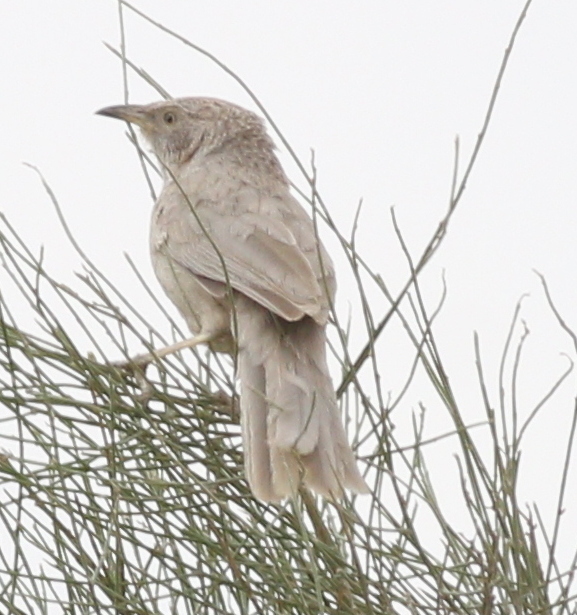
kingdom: Animalia
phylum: Chordata
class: Aves
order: Passeriformes
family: Leiothrichidae
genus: Turdoides
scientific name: Turdoides squamiceps
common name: Arabian babbler
